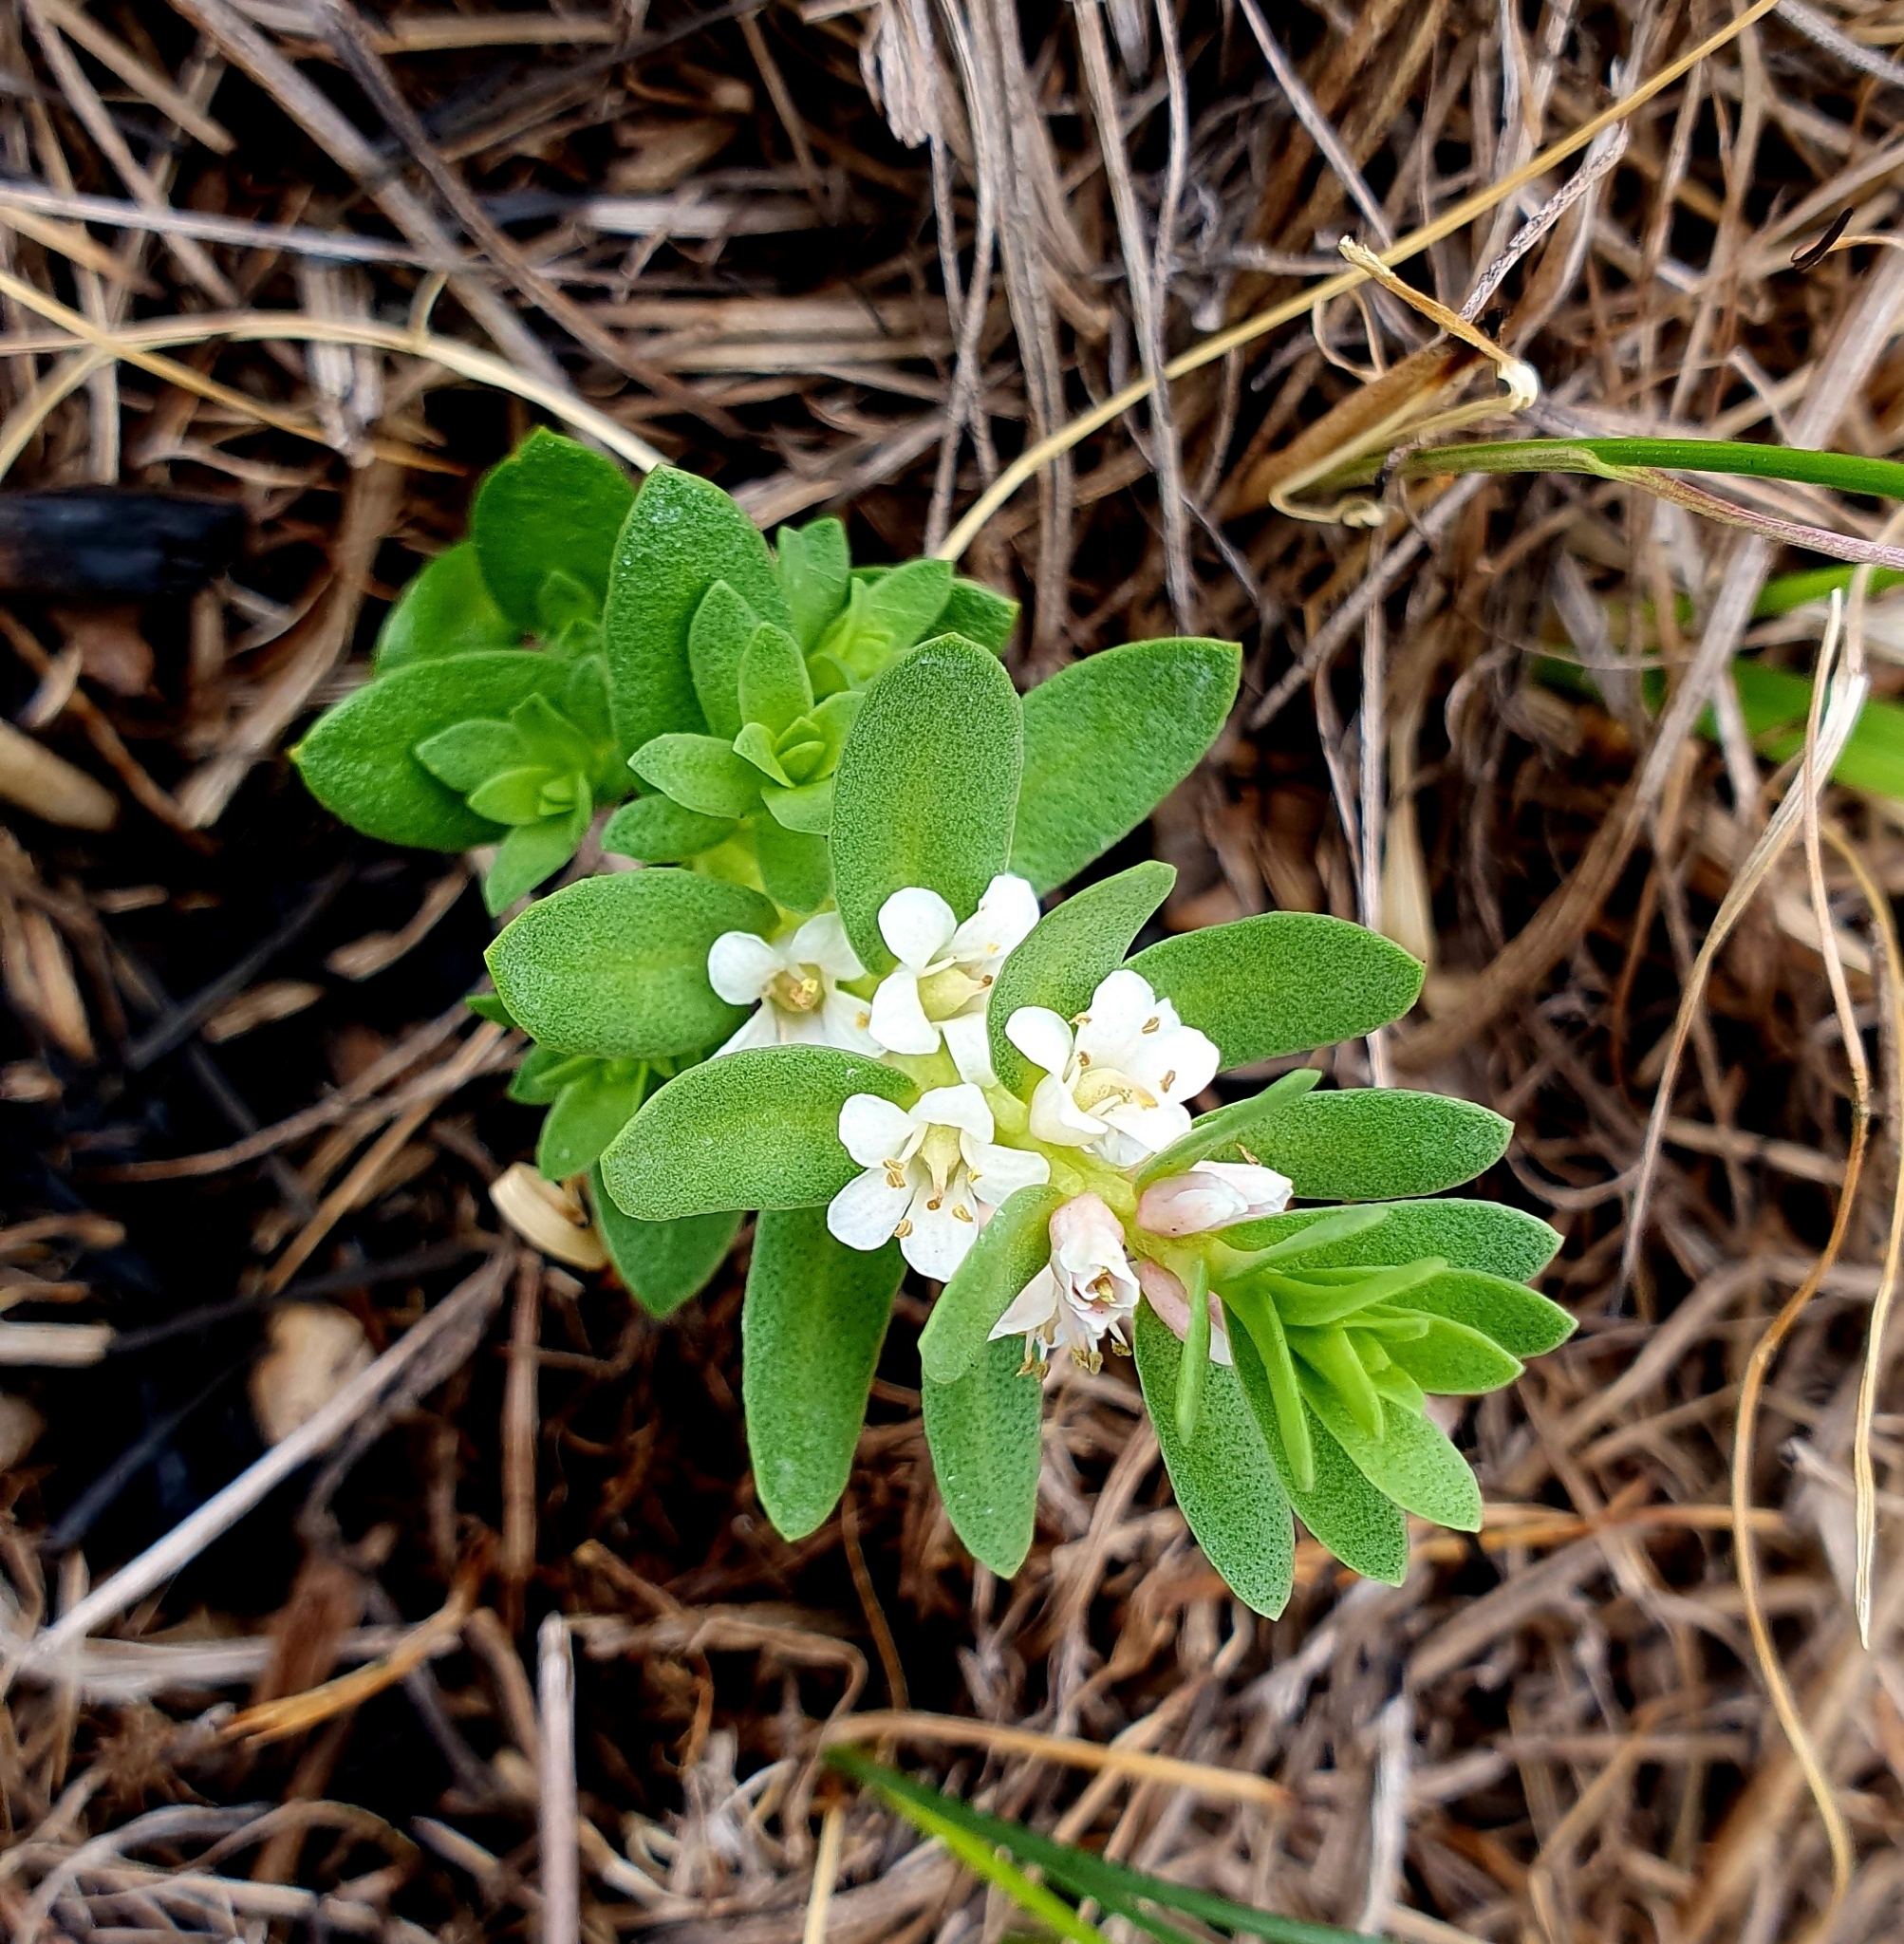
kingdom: Plantae
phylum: Tracheophyta
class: Magnoliopsida
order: Ericales
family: Primulaceae
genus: Lysimachia
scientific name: Lysimachia maritima
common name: Sea milkwort
